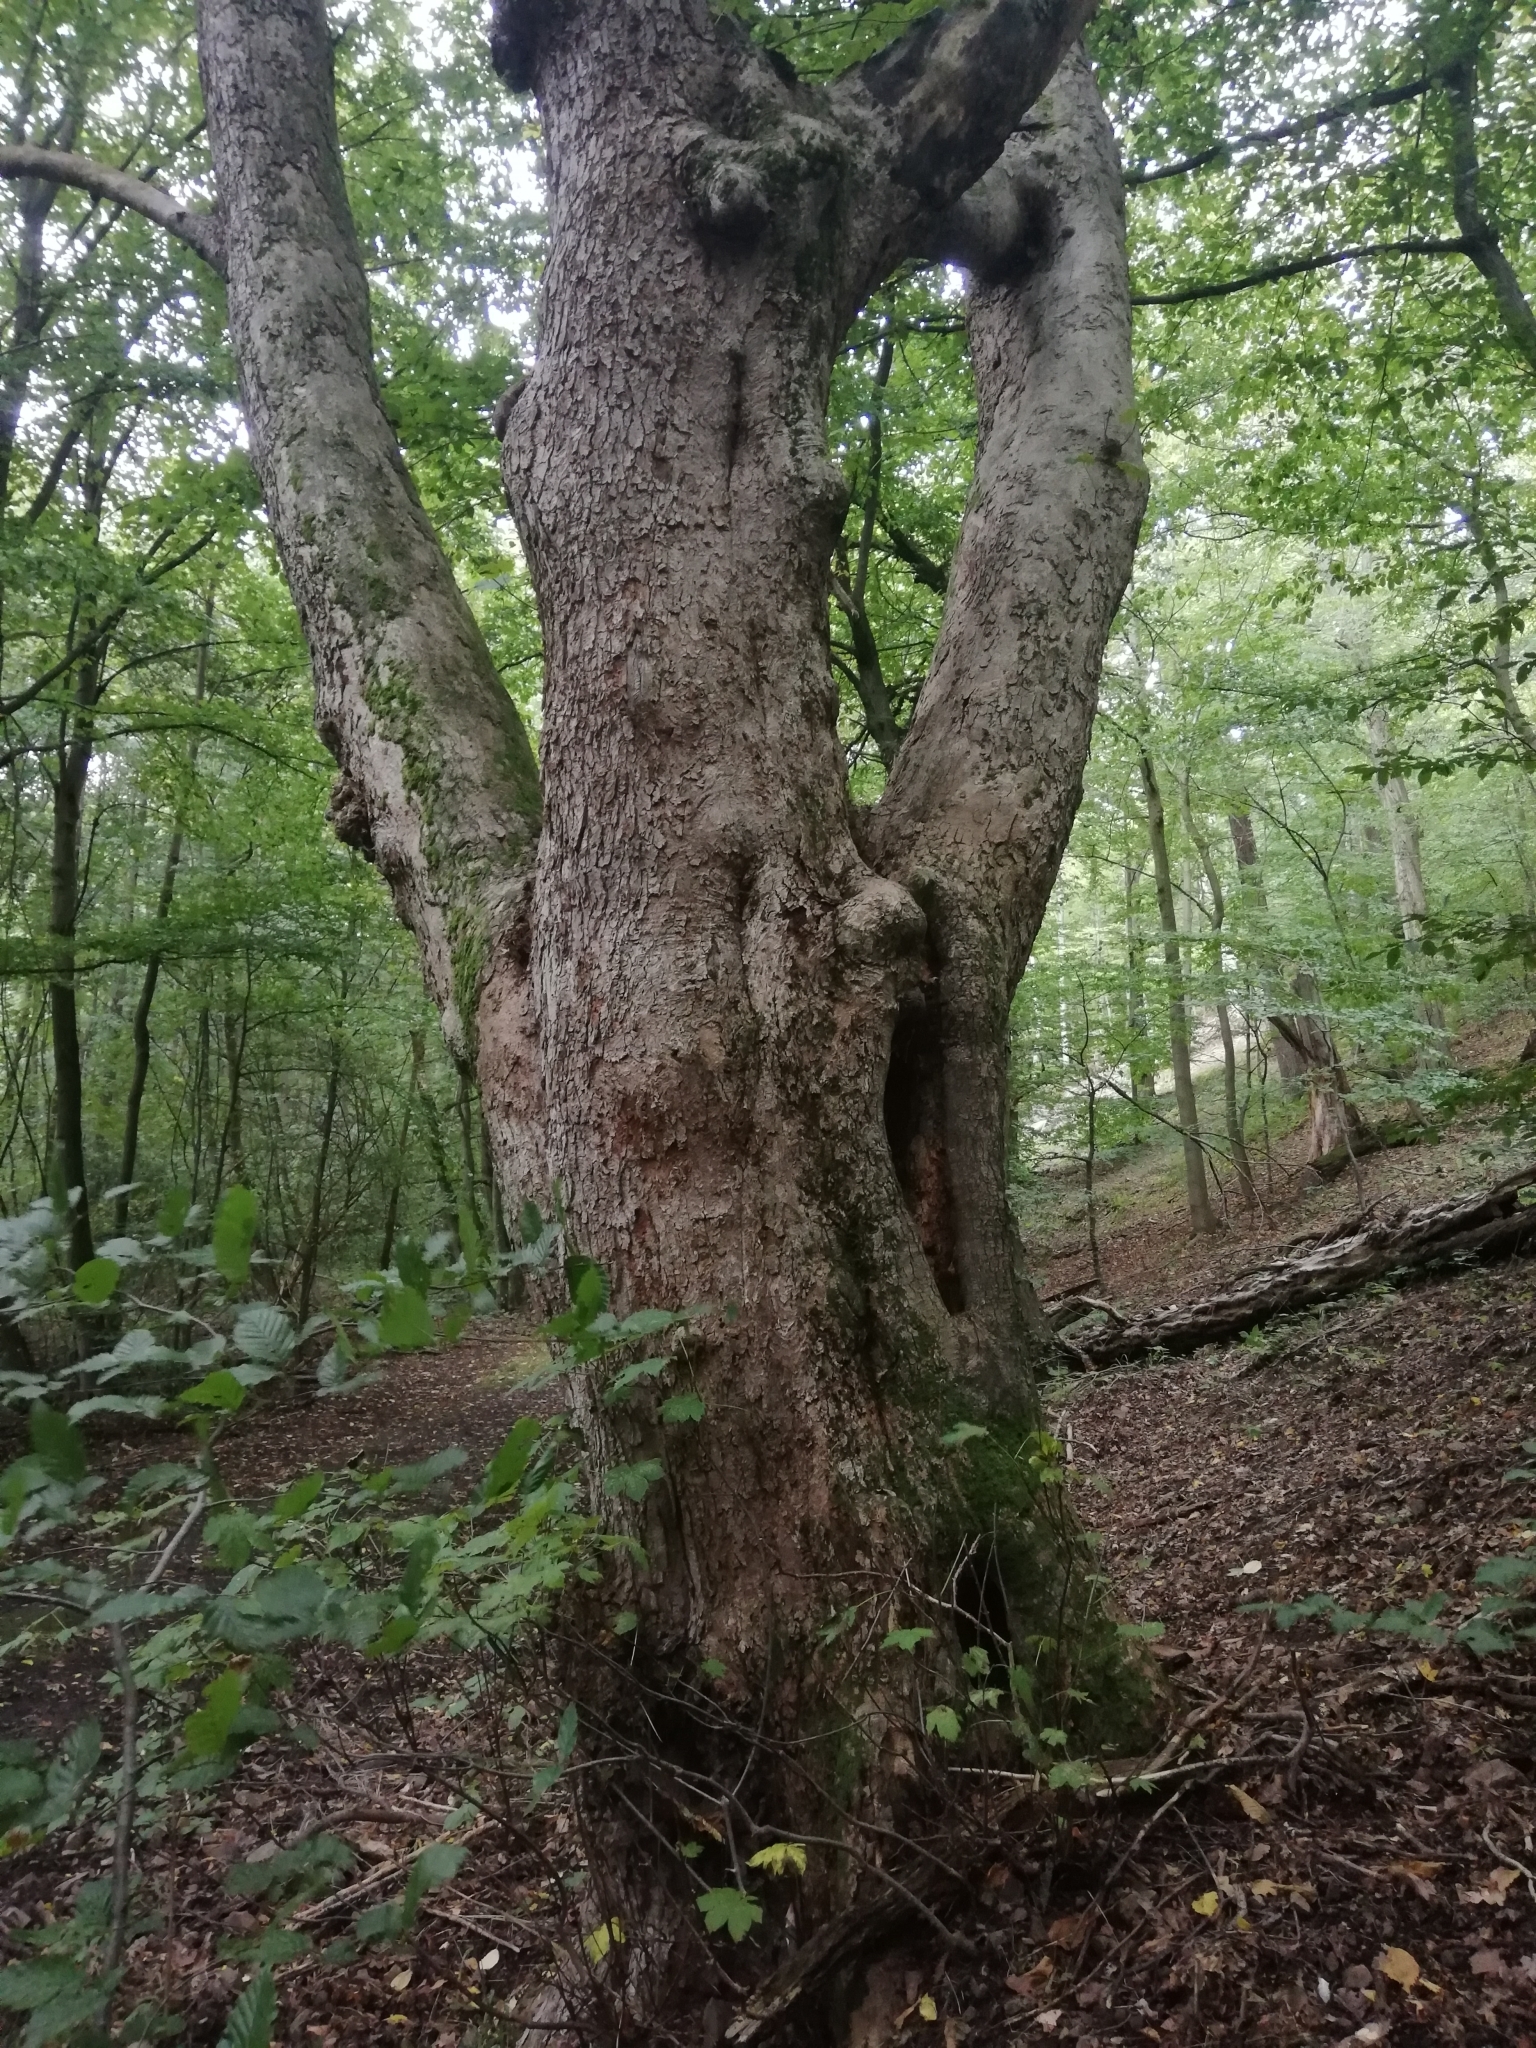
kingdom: Plantae
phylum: Tracheophyta
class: Magnoliopsida
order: Sapindales
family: Sapindaceae
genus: Acer
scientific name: Acer pseudoplatanus
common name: Sycamore
